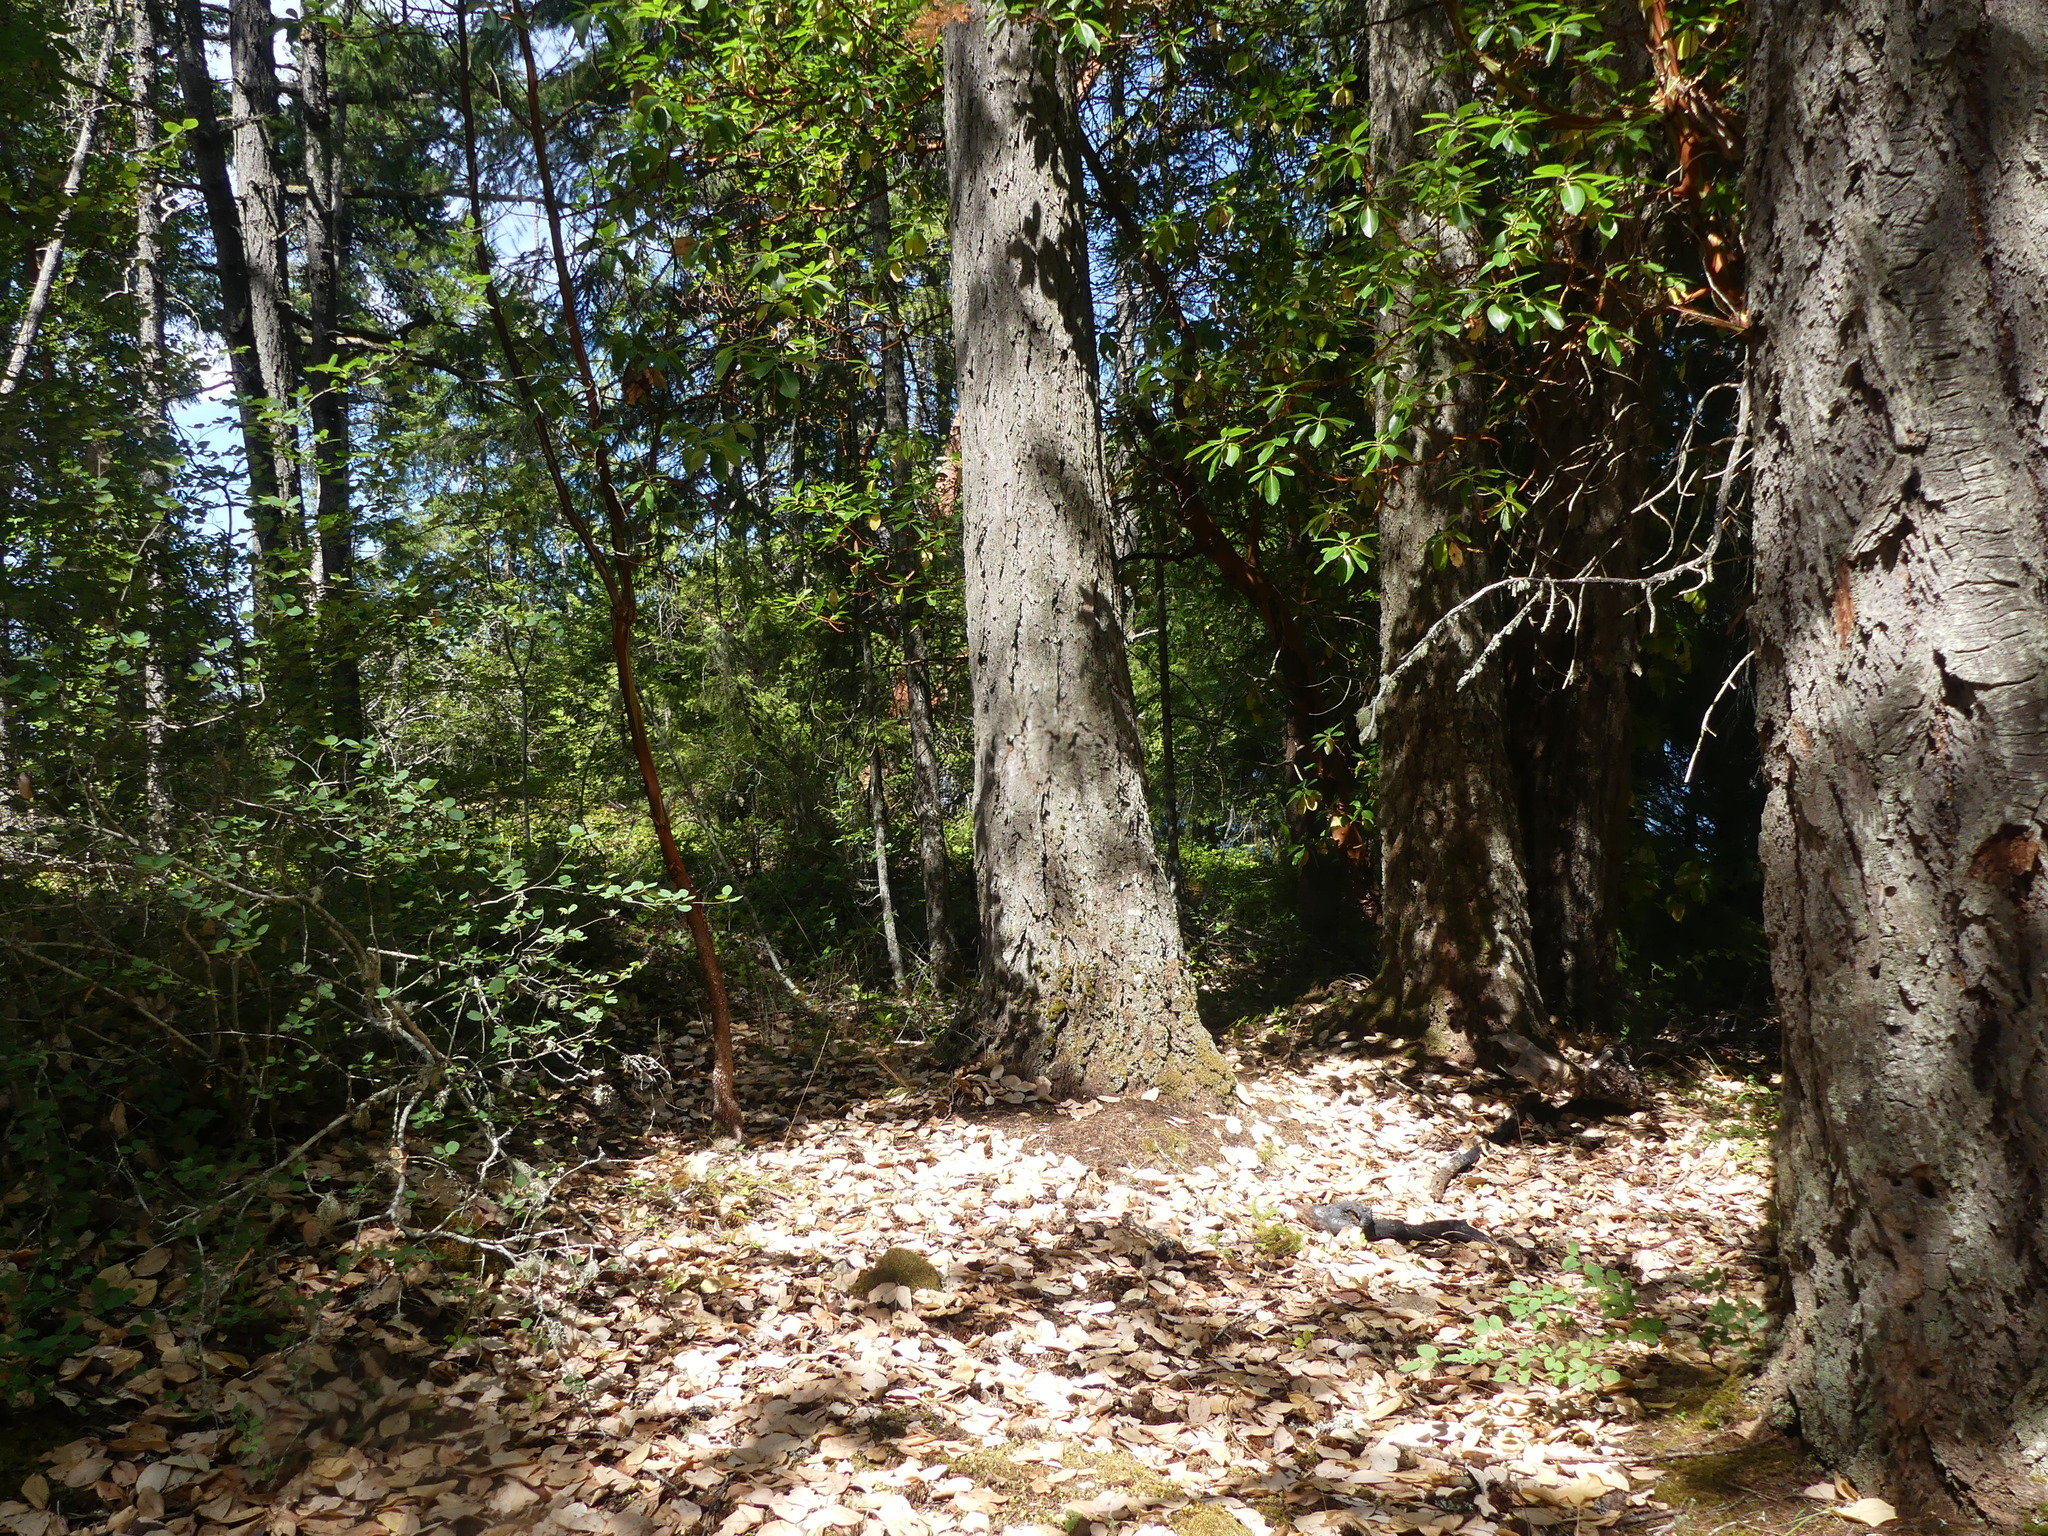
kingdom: Plantae
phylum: Tracheophyta
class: Pinopsida
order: Pinales
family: Pinaceae
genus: Pseudotsuga
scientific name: Pseudotsuga menziesii
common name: Douglas fir
